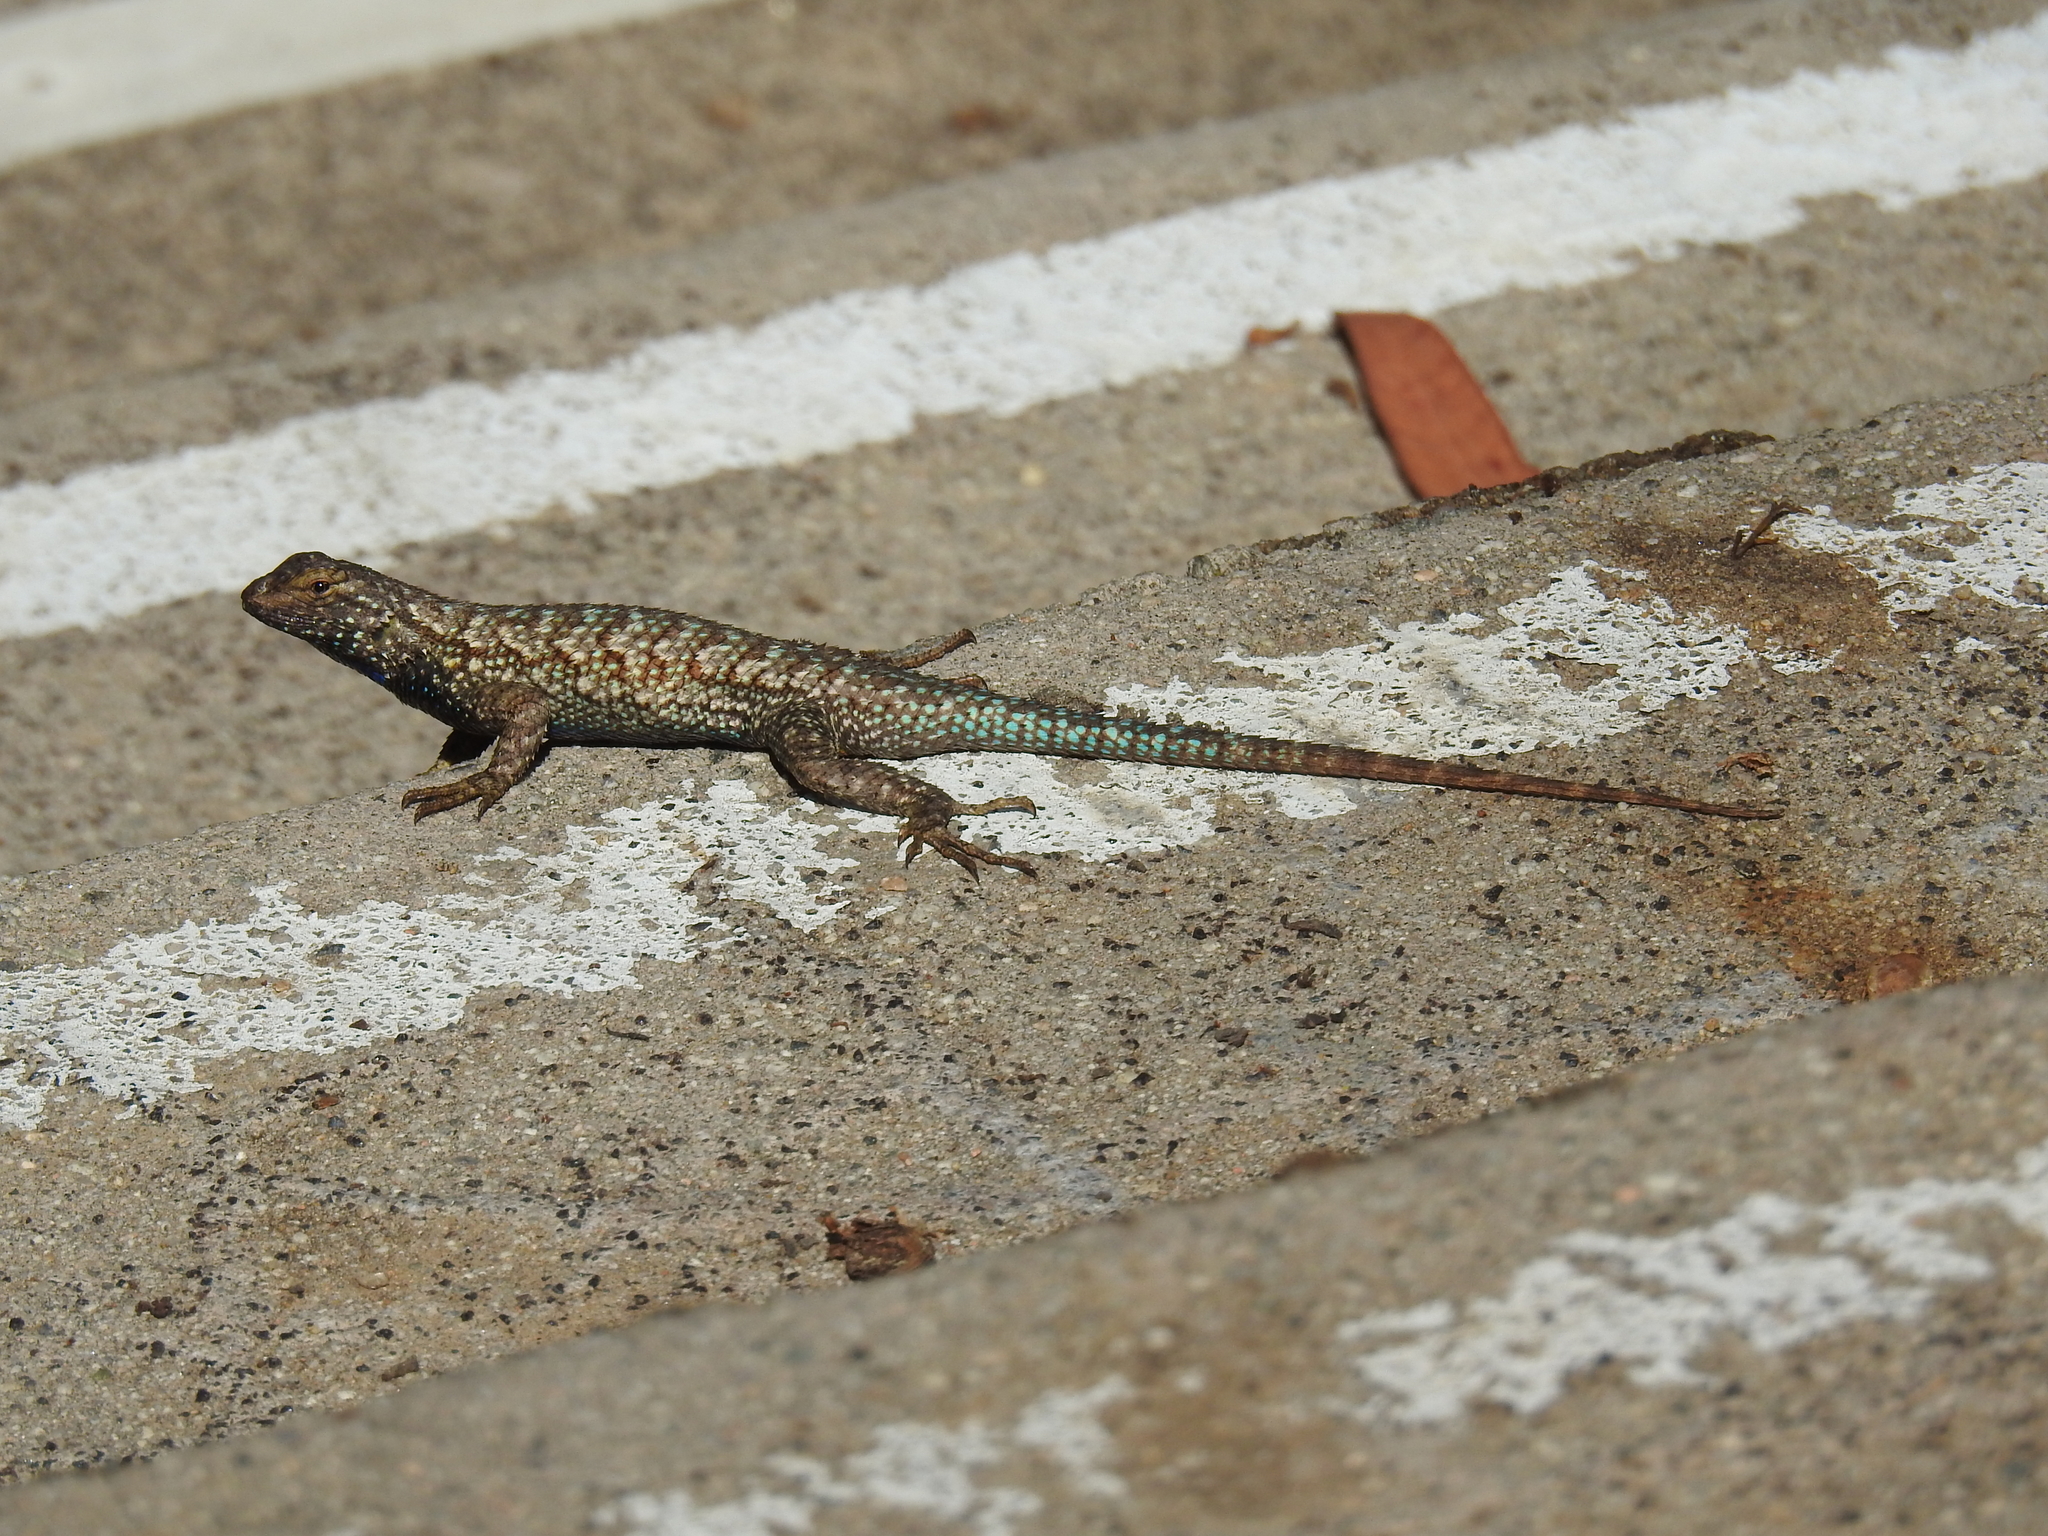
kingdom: Animalia
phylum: Chordata
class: Squamata
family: Phrynosomatidae
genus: Sceloporus
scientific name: Sceloporus occidentalis
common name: Western fence lizard
